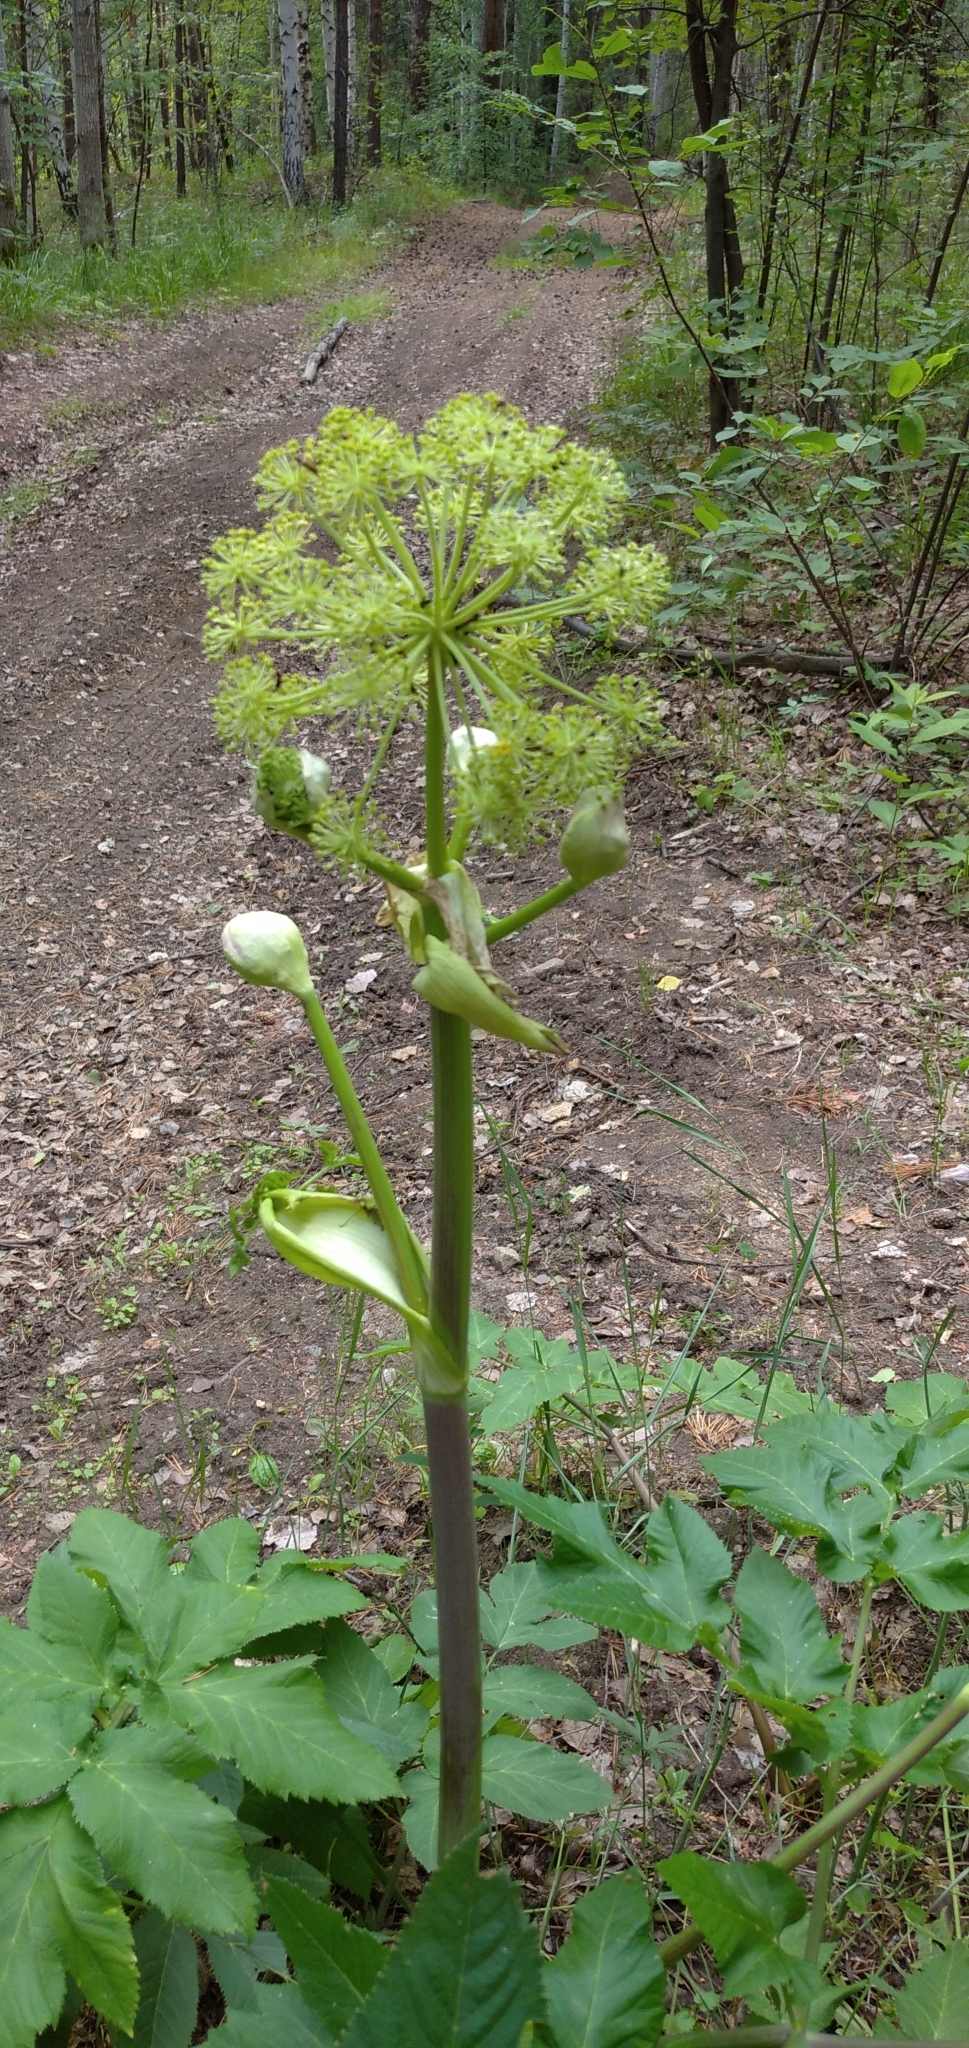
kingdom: Plantae
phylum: Tracheophyta
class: Magnoliopsida
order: Apiales
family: Apiaceae
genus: Angelica
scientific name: Angelica archangelica
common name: Garden angelica
